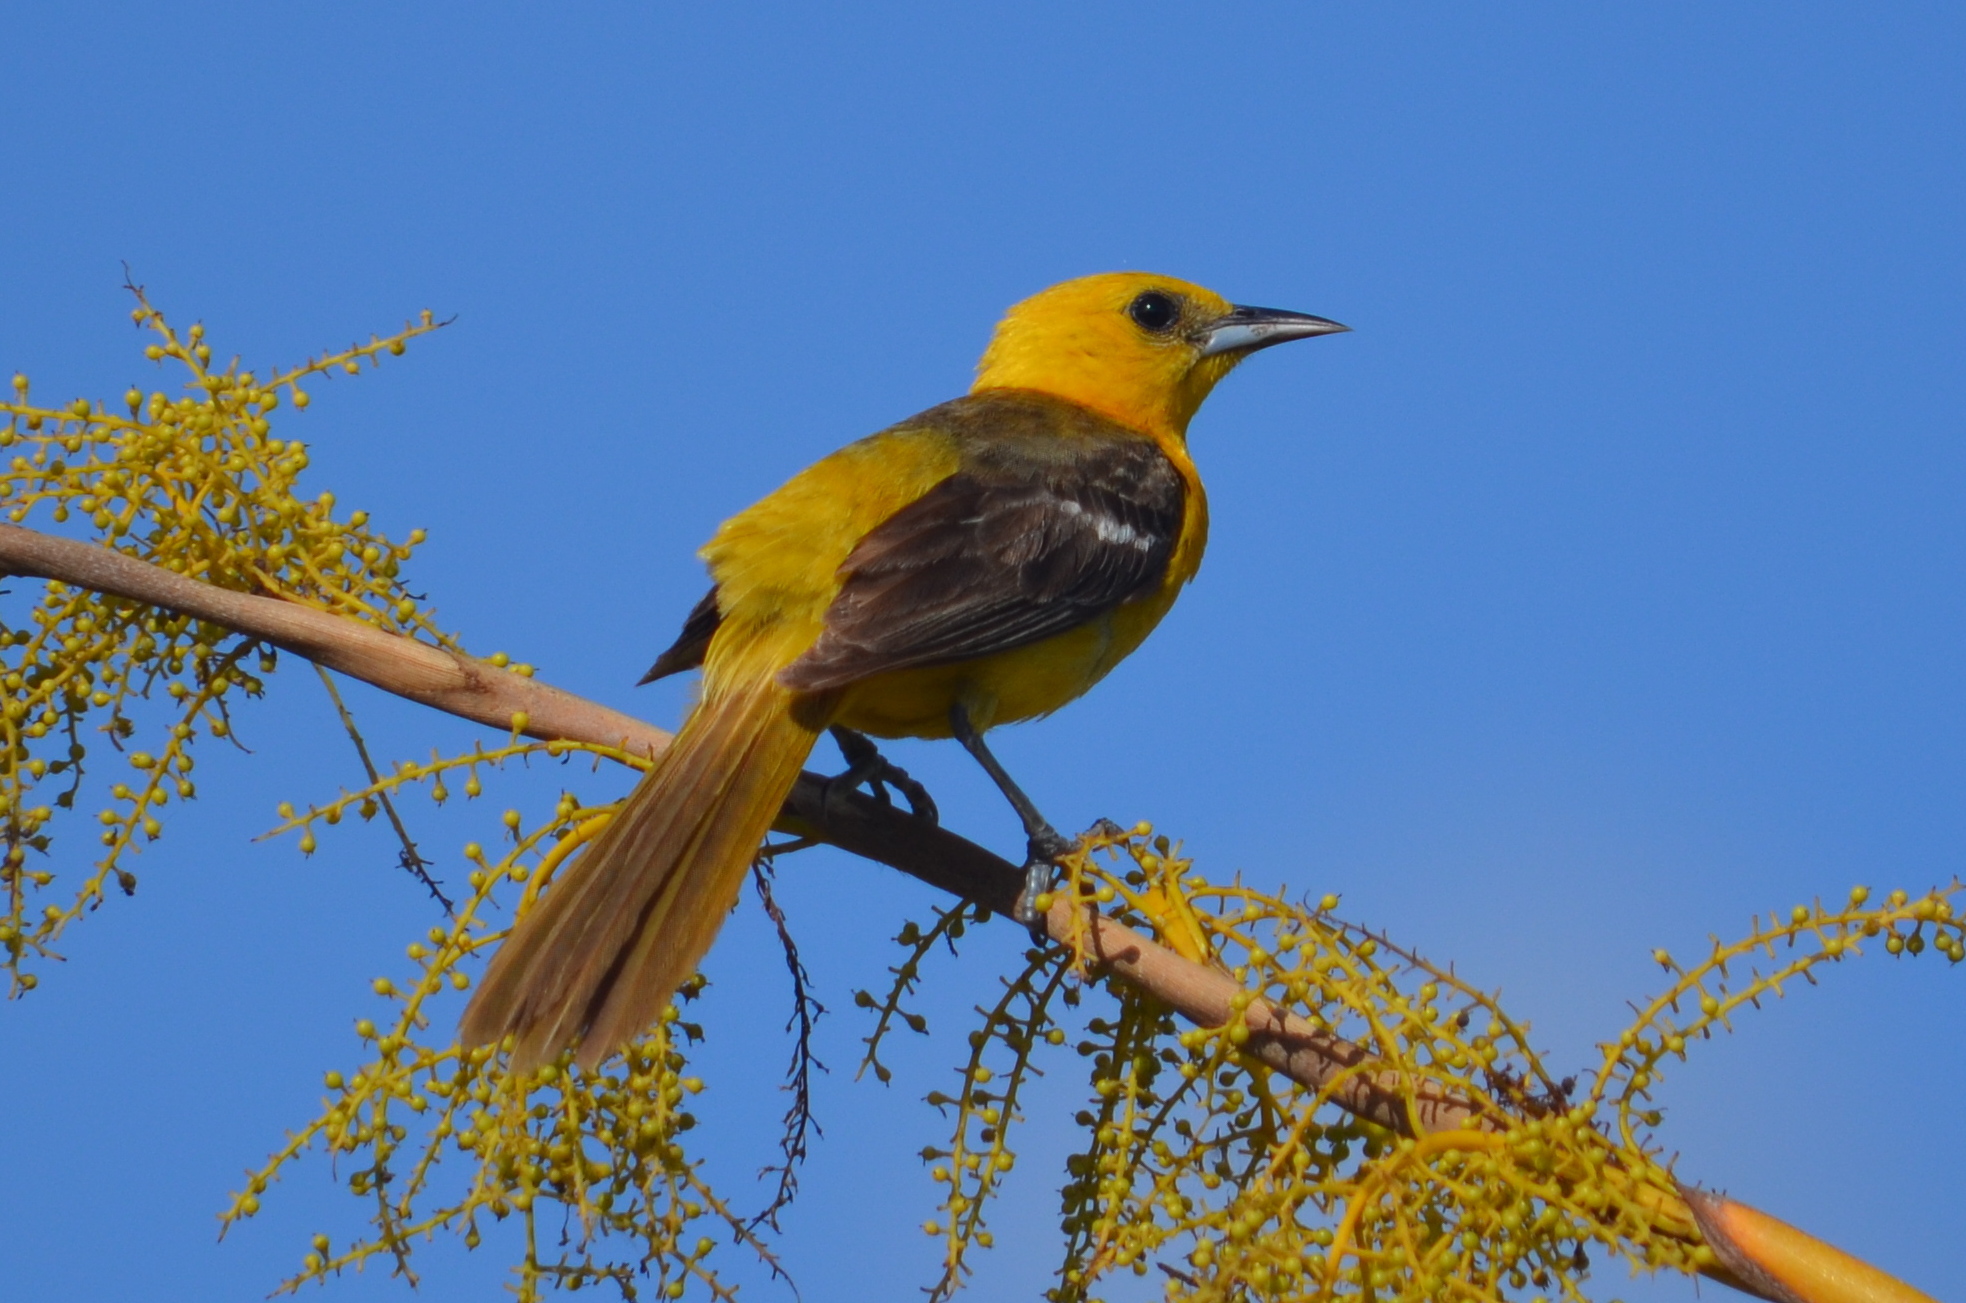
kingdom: Animalia
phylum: Chordata
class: Aves
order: Passeriformes
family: Icteridae
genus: Icterus
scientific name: Icterus cucullatus
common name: Hooded oriole
